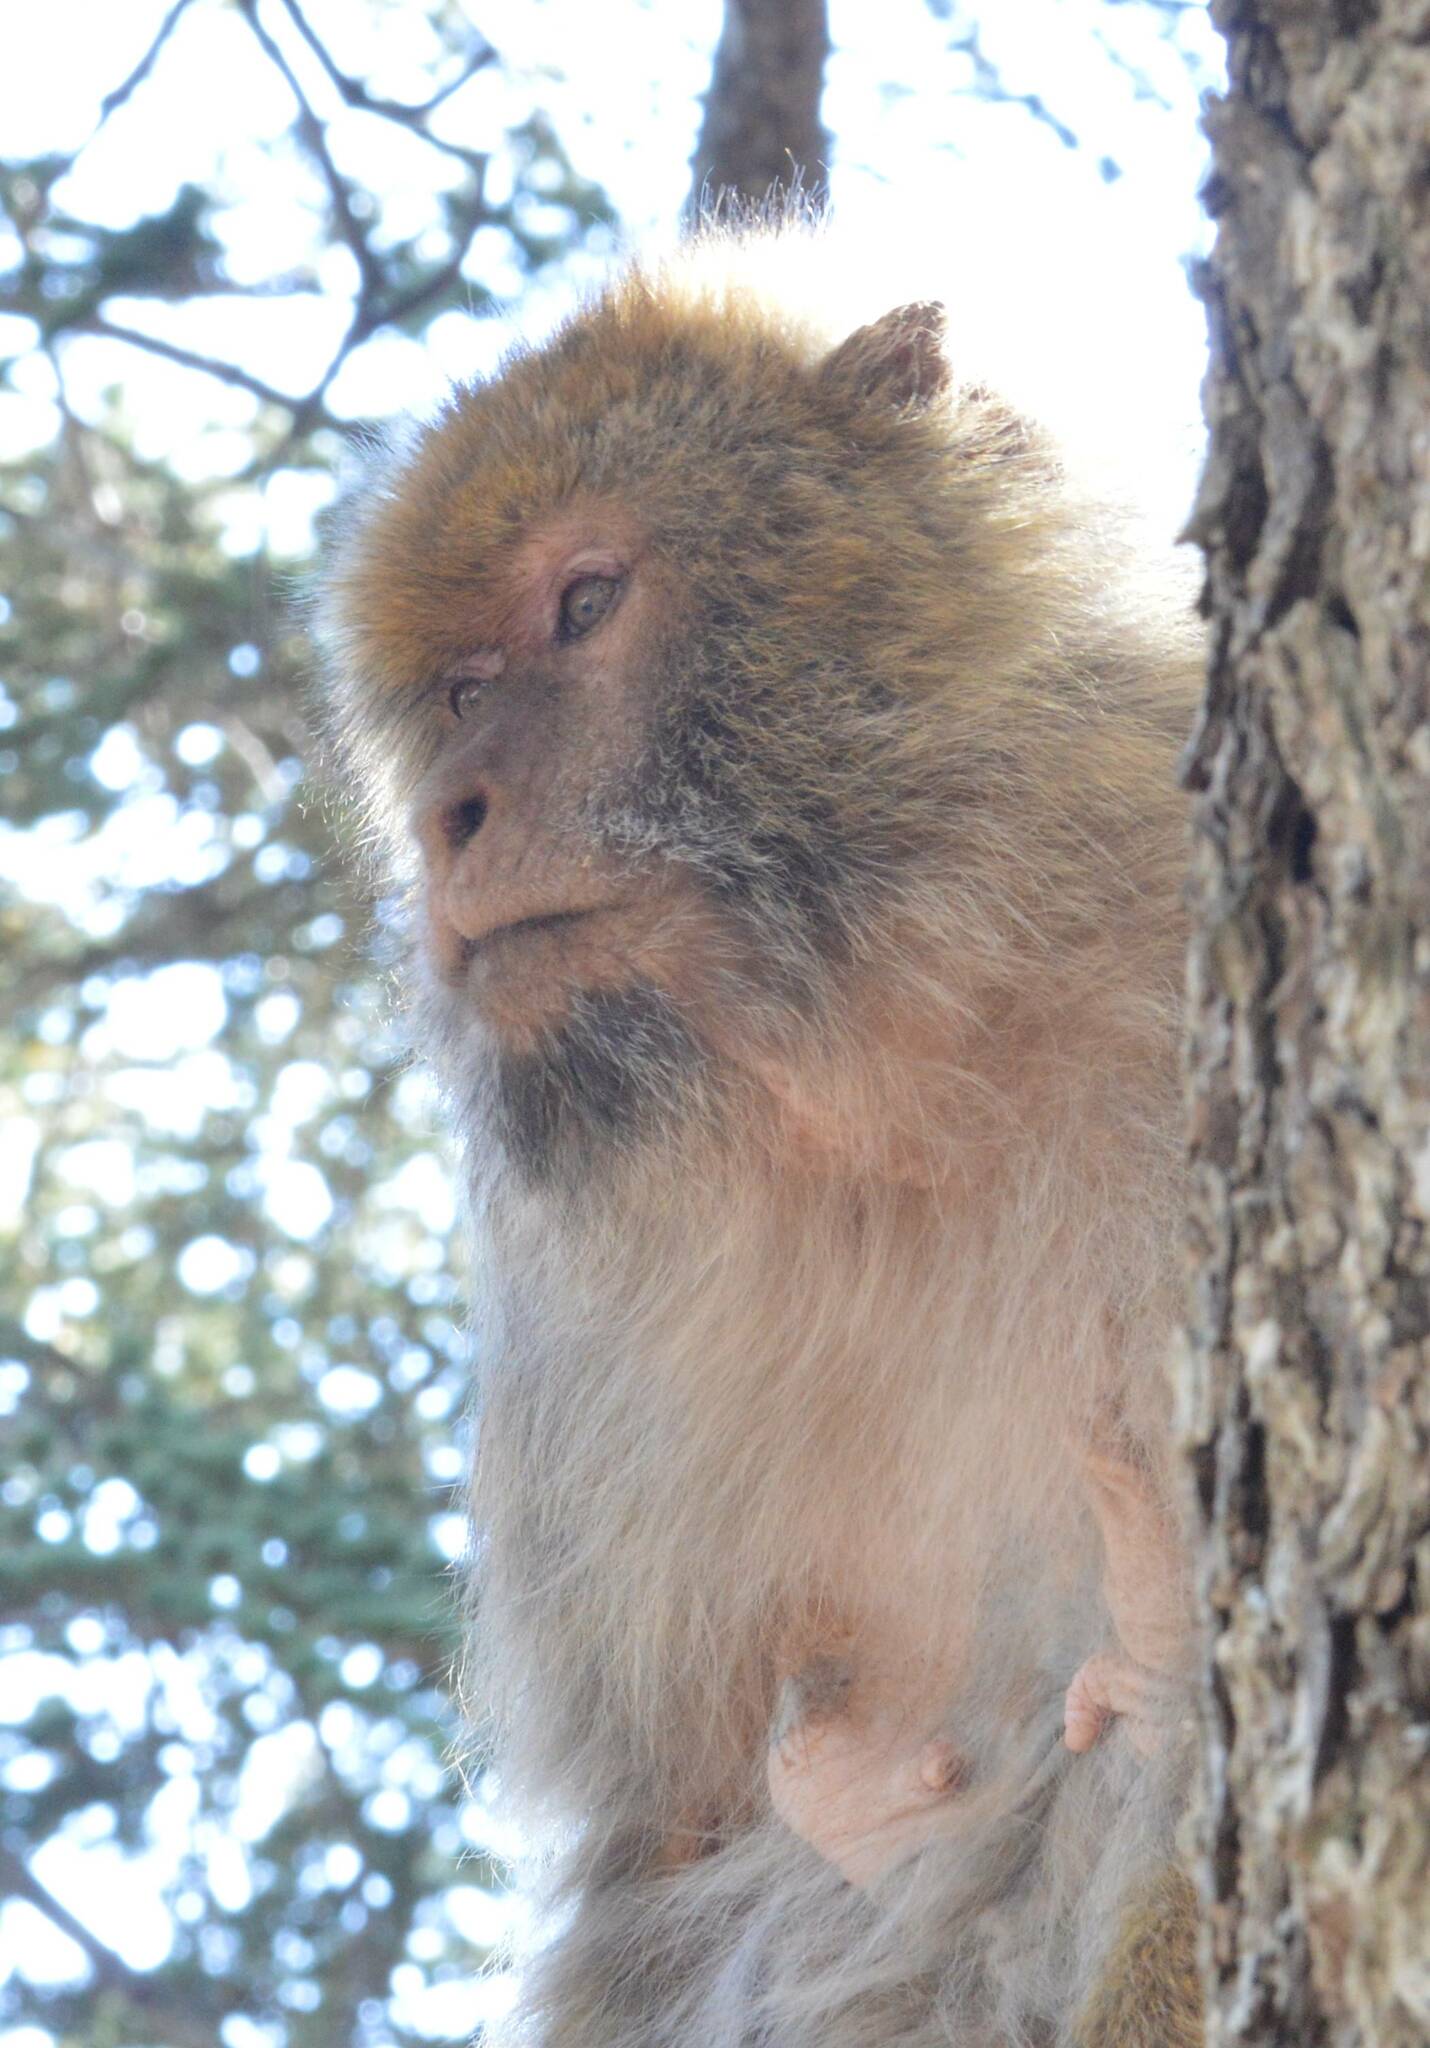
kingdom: Animalia
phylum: Chordata
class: Mammalia
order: Primates
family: Cercopithecidae
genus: Macaca
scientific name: Macaca sylvanus
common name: Barbary macaque
